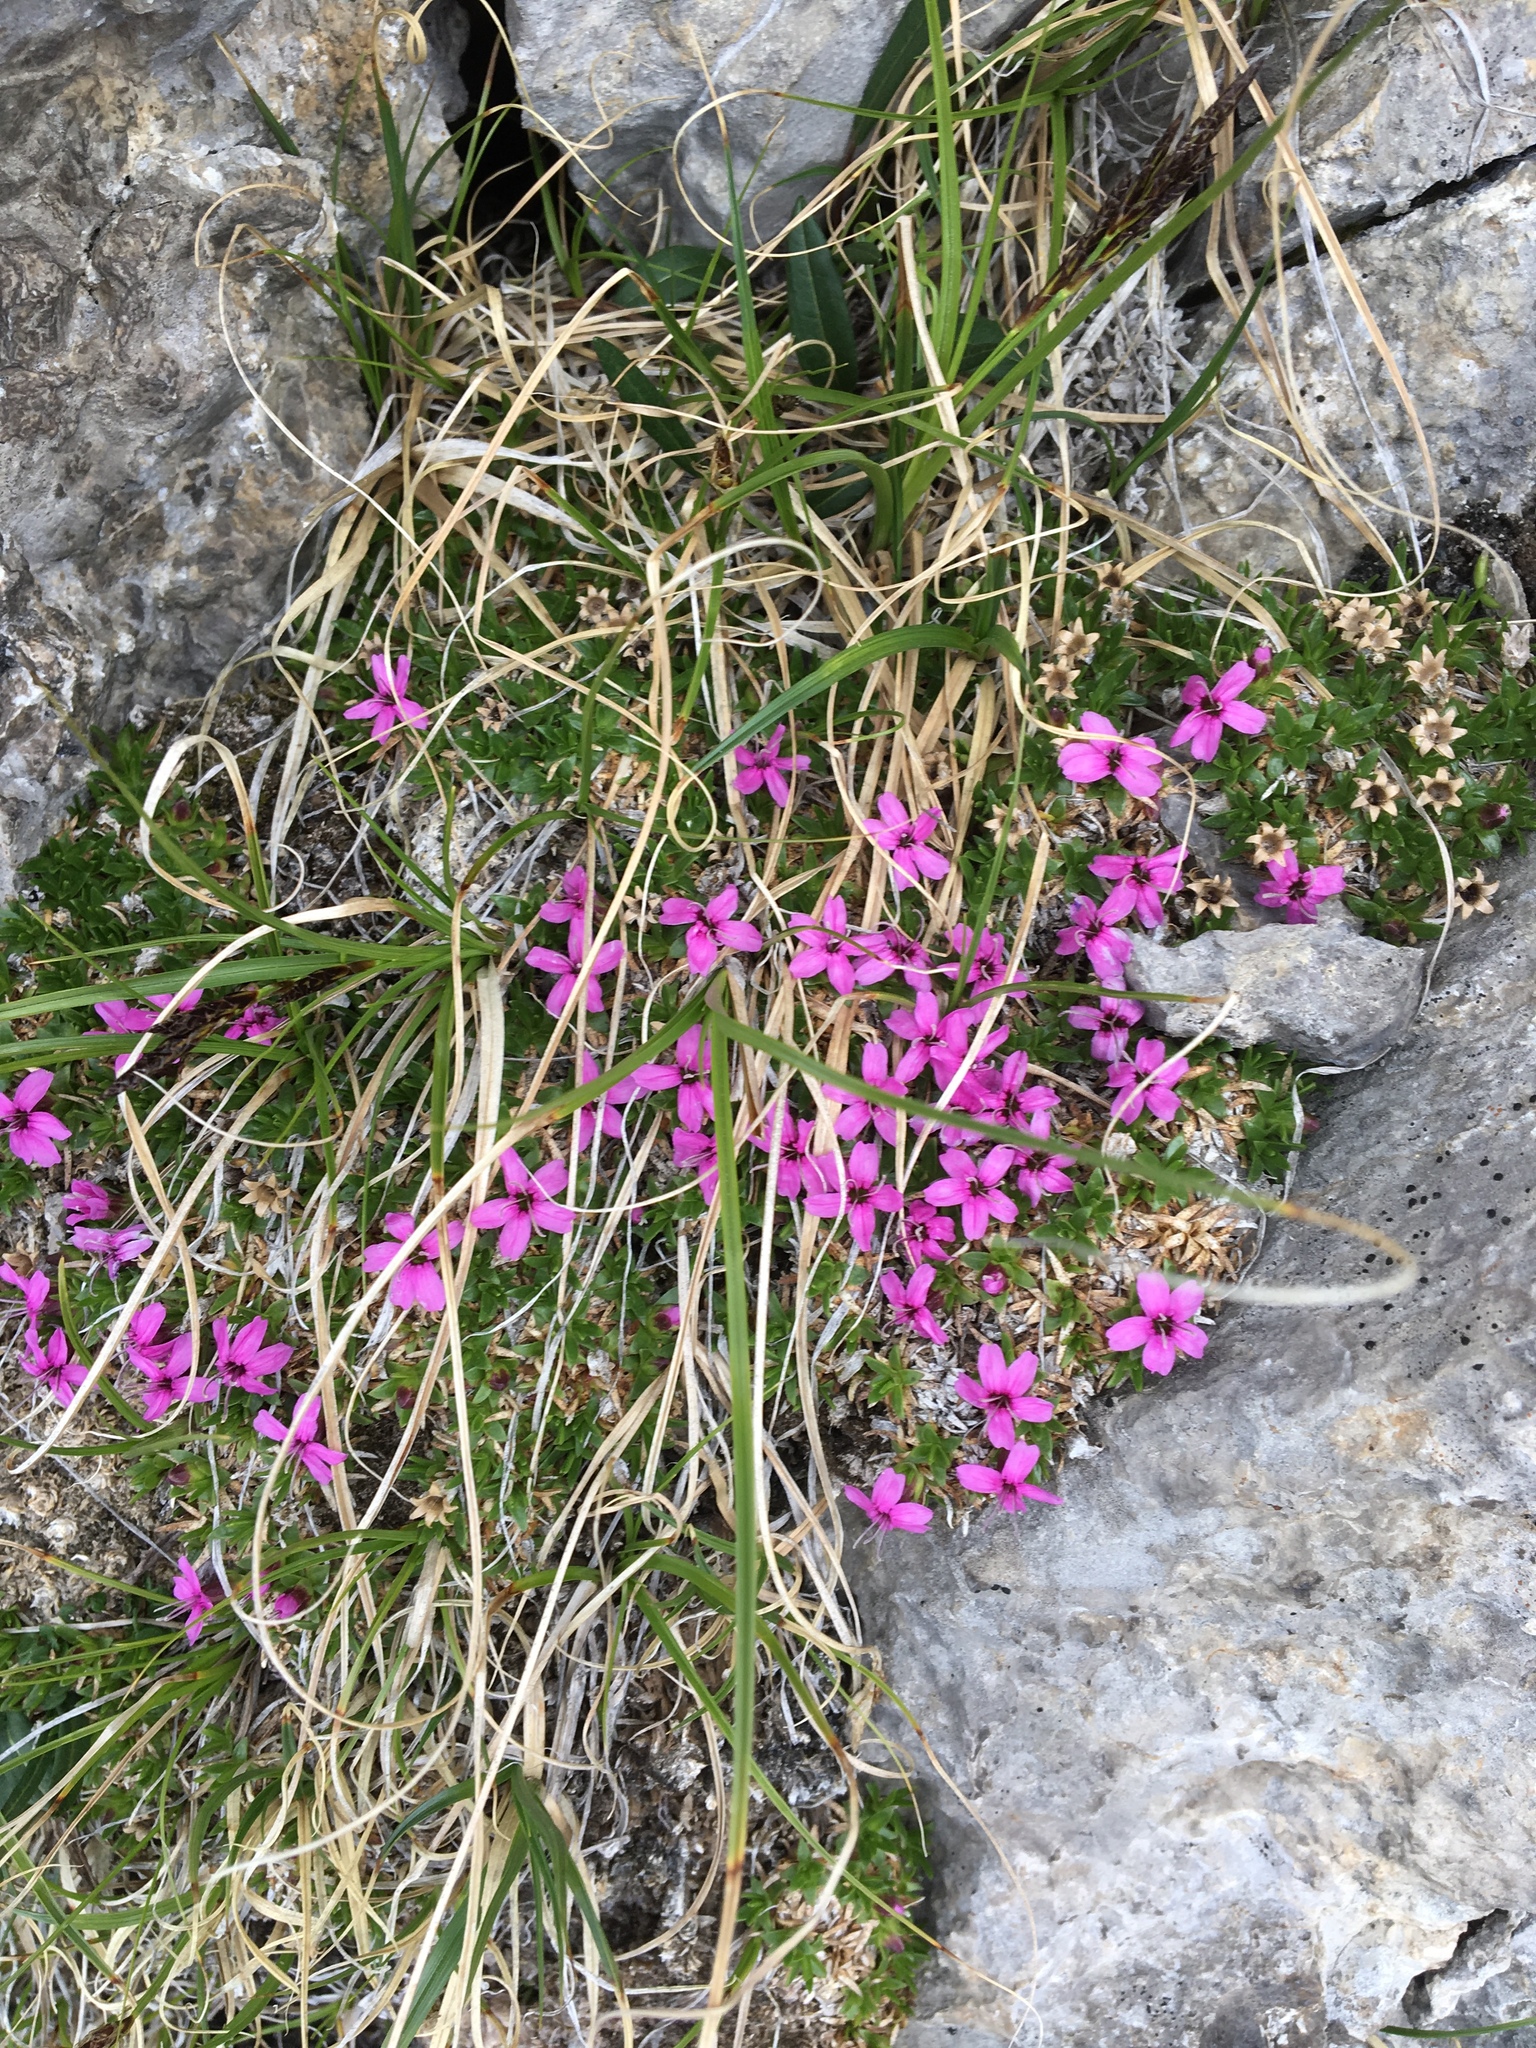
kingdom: Plantae
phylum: Tracheophyta
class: Magnoliopsida
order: Caryophyllales
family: Caryophyllaceae
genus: Silene
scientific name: Silene acaulis
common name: Moss campion
